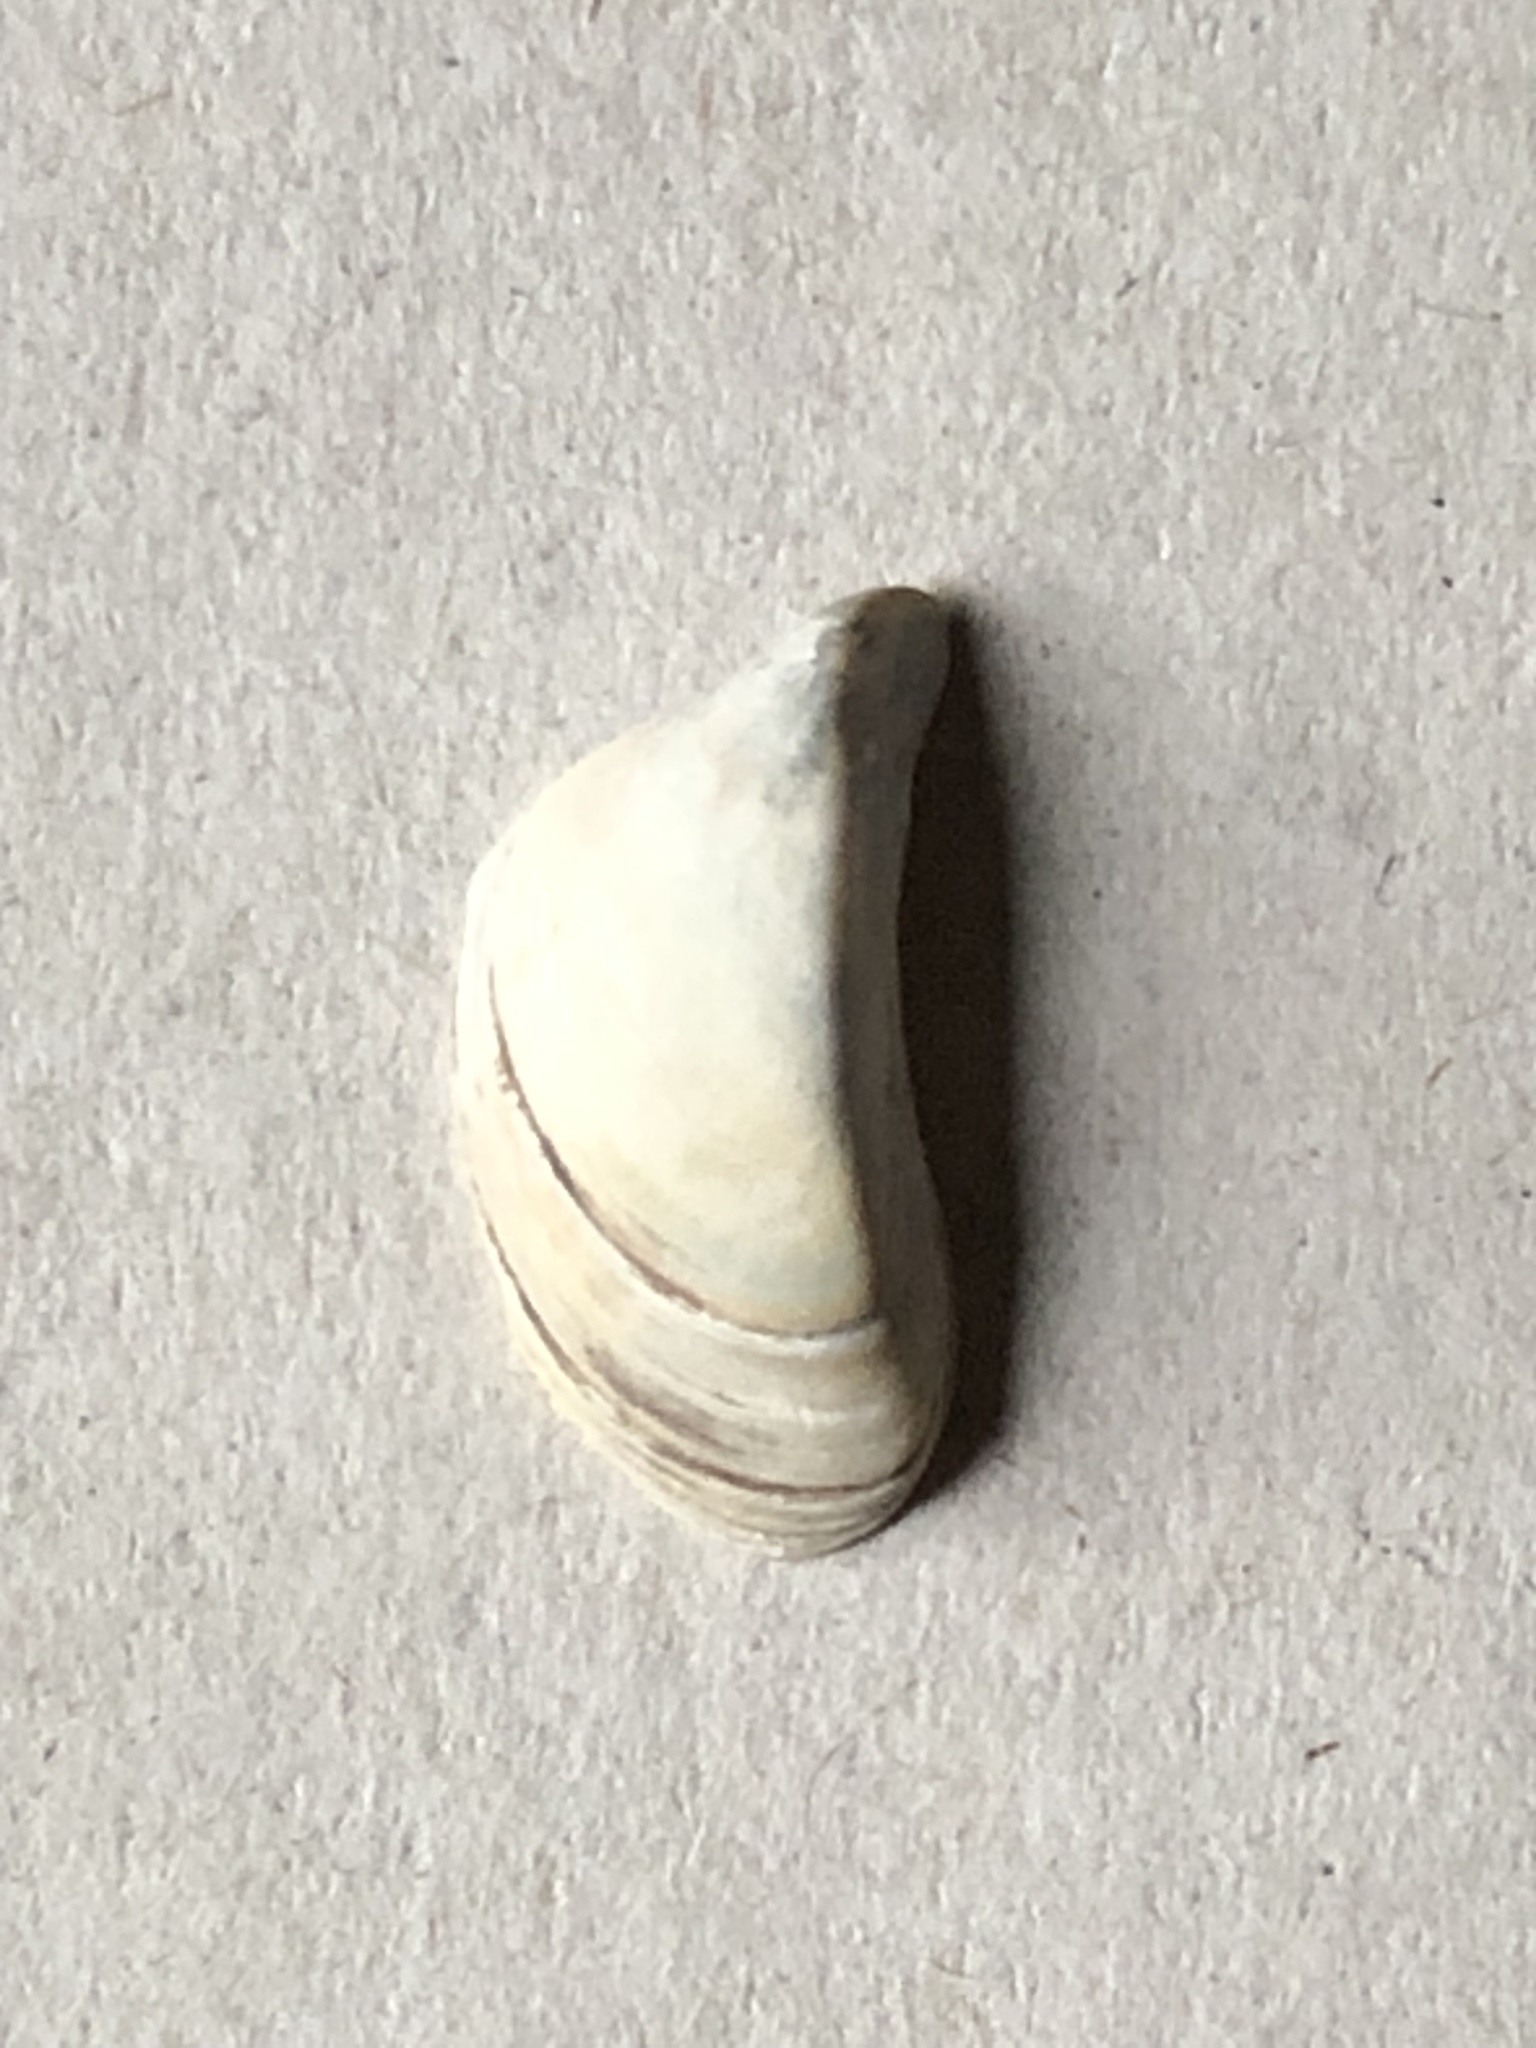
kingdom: Animalia
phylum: Mollusca
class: Bivalvia
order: Myida
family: Dreissenidae
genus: Dreissena
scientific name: Dreissena polymorpha
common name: Zebra mussel
